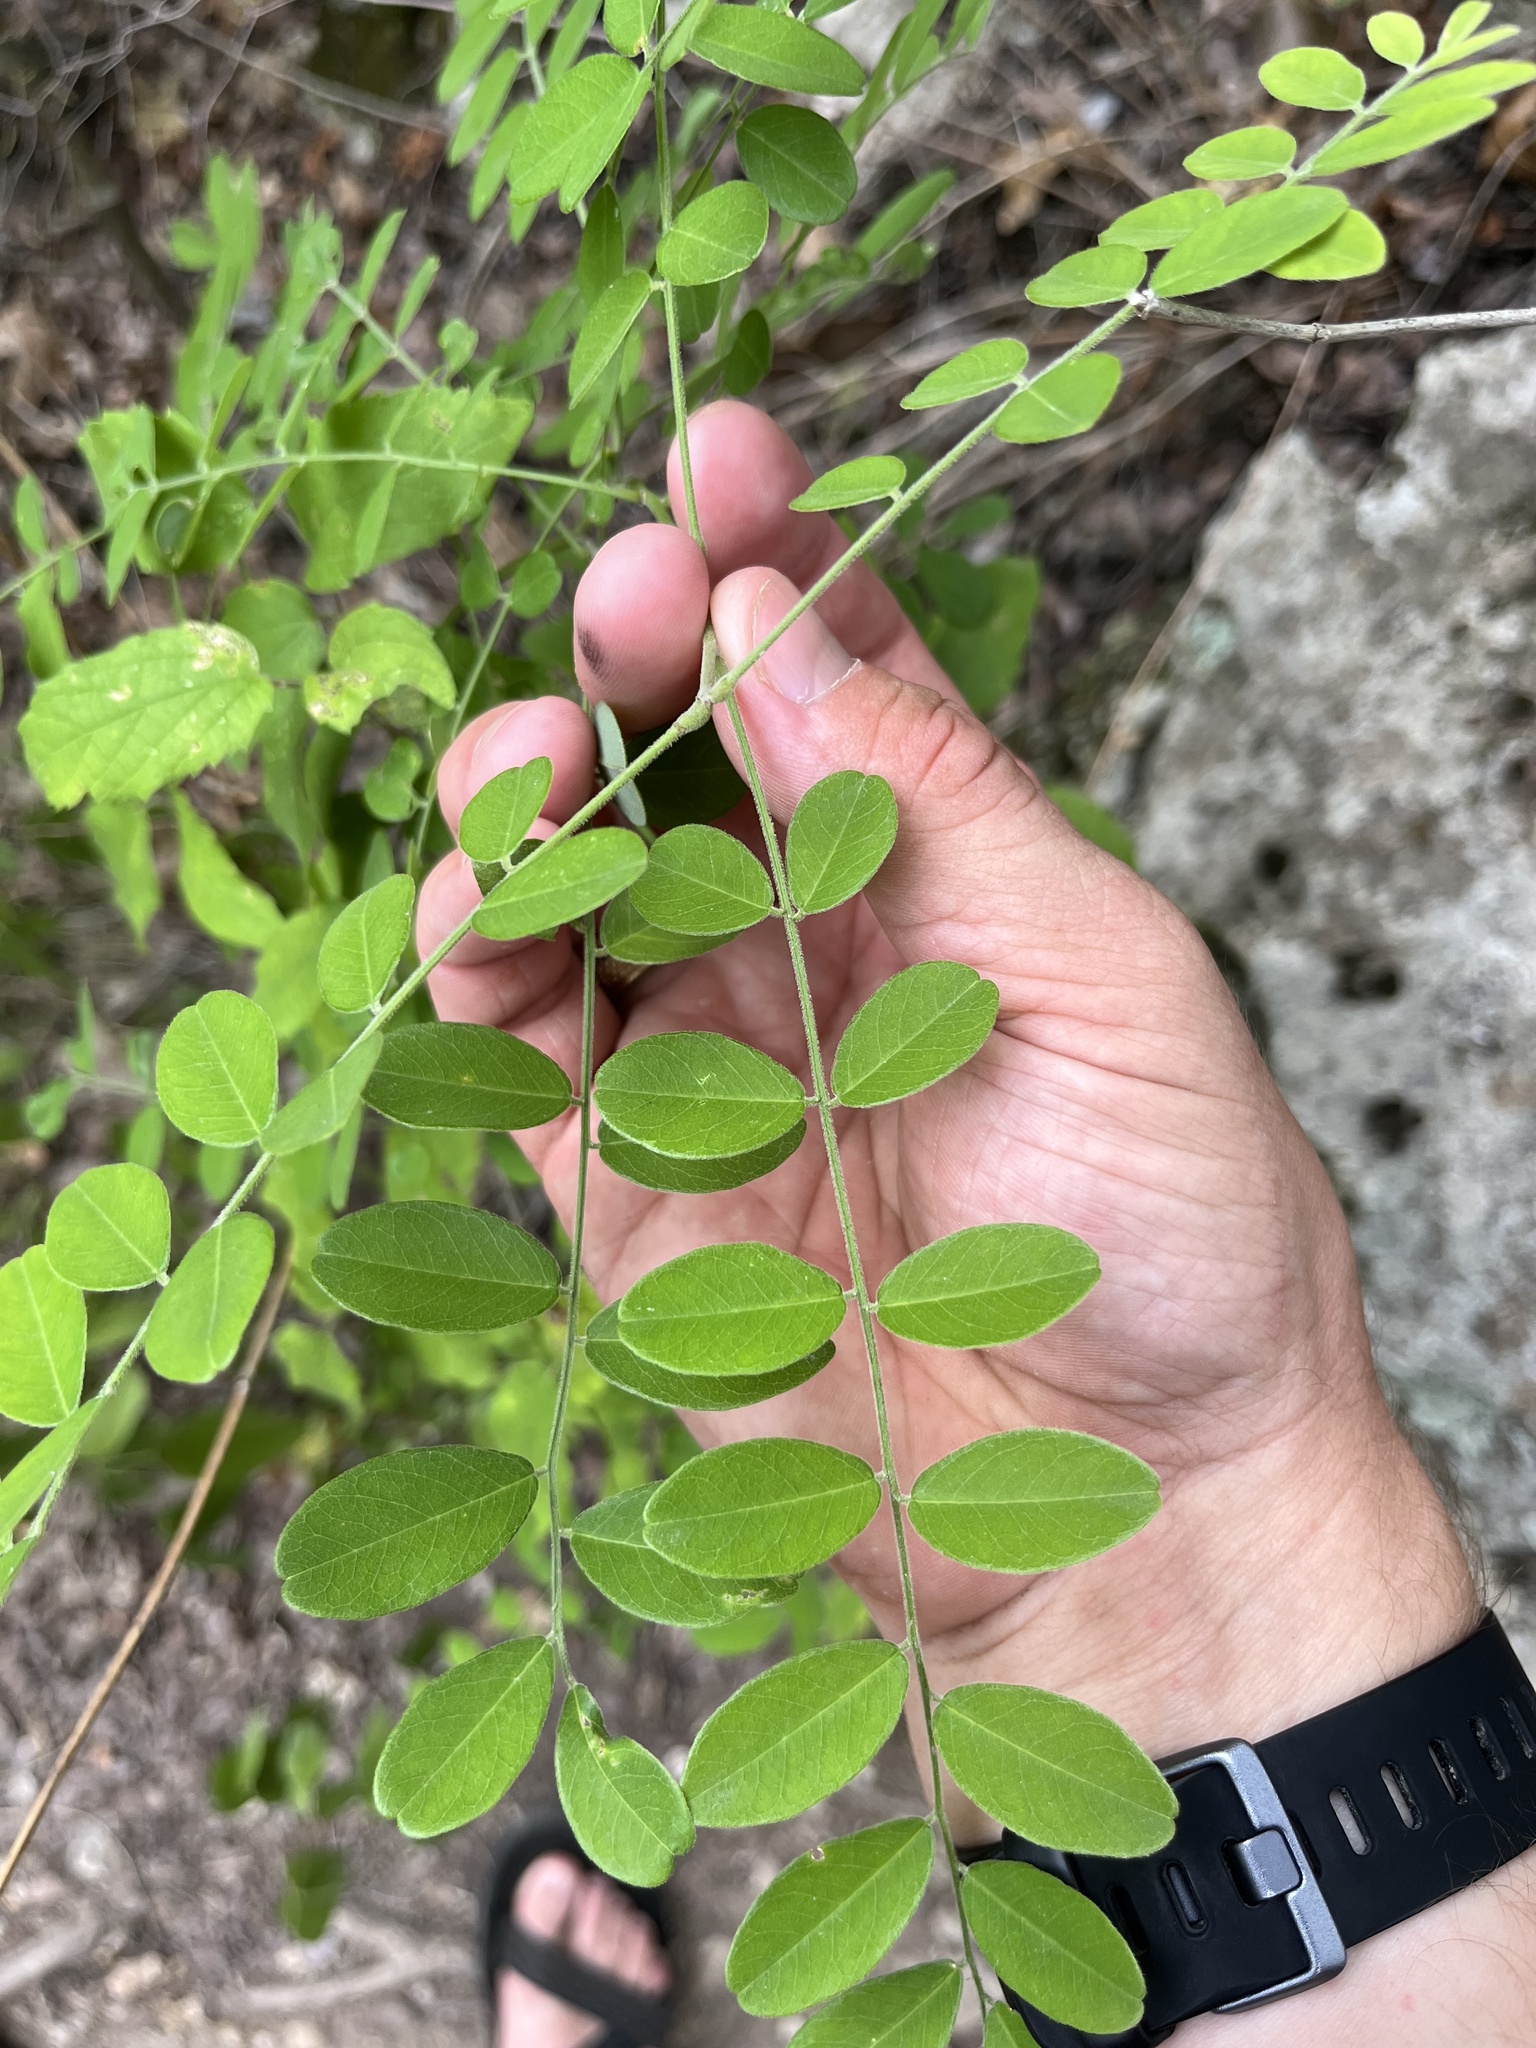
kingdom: Plantae
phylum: Tracheophyta
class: Magnoliopsida
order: Fabales
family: Fabaceae
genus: Styphnolobium
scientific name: Styphnolobium affine
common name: Texas sophora
